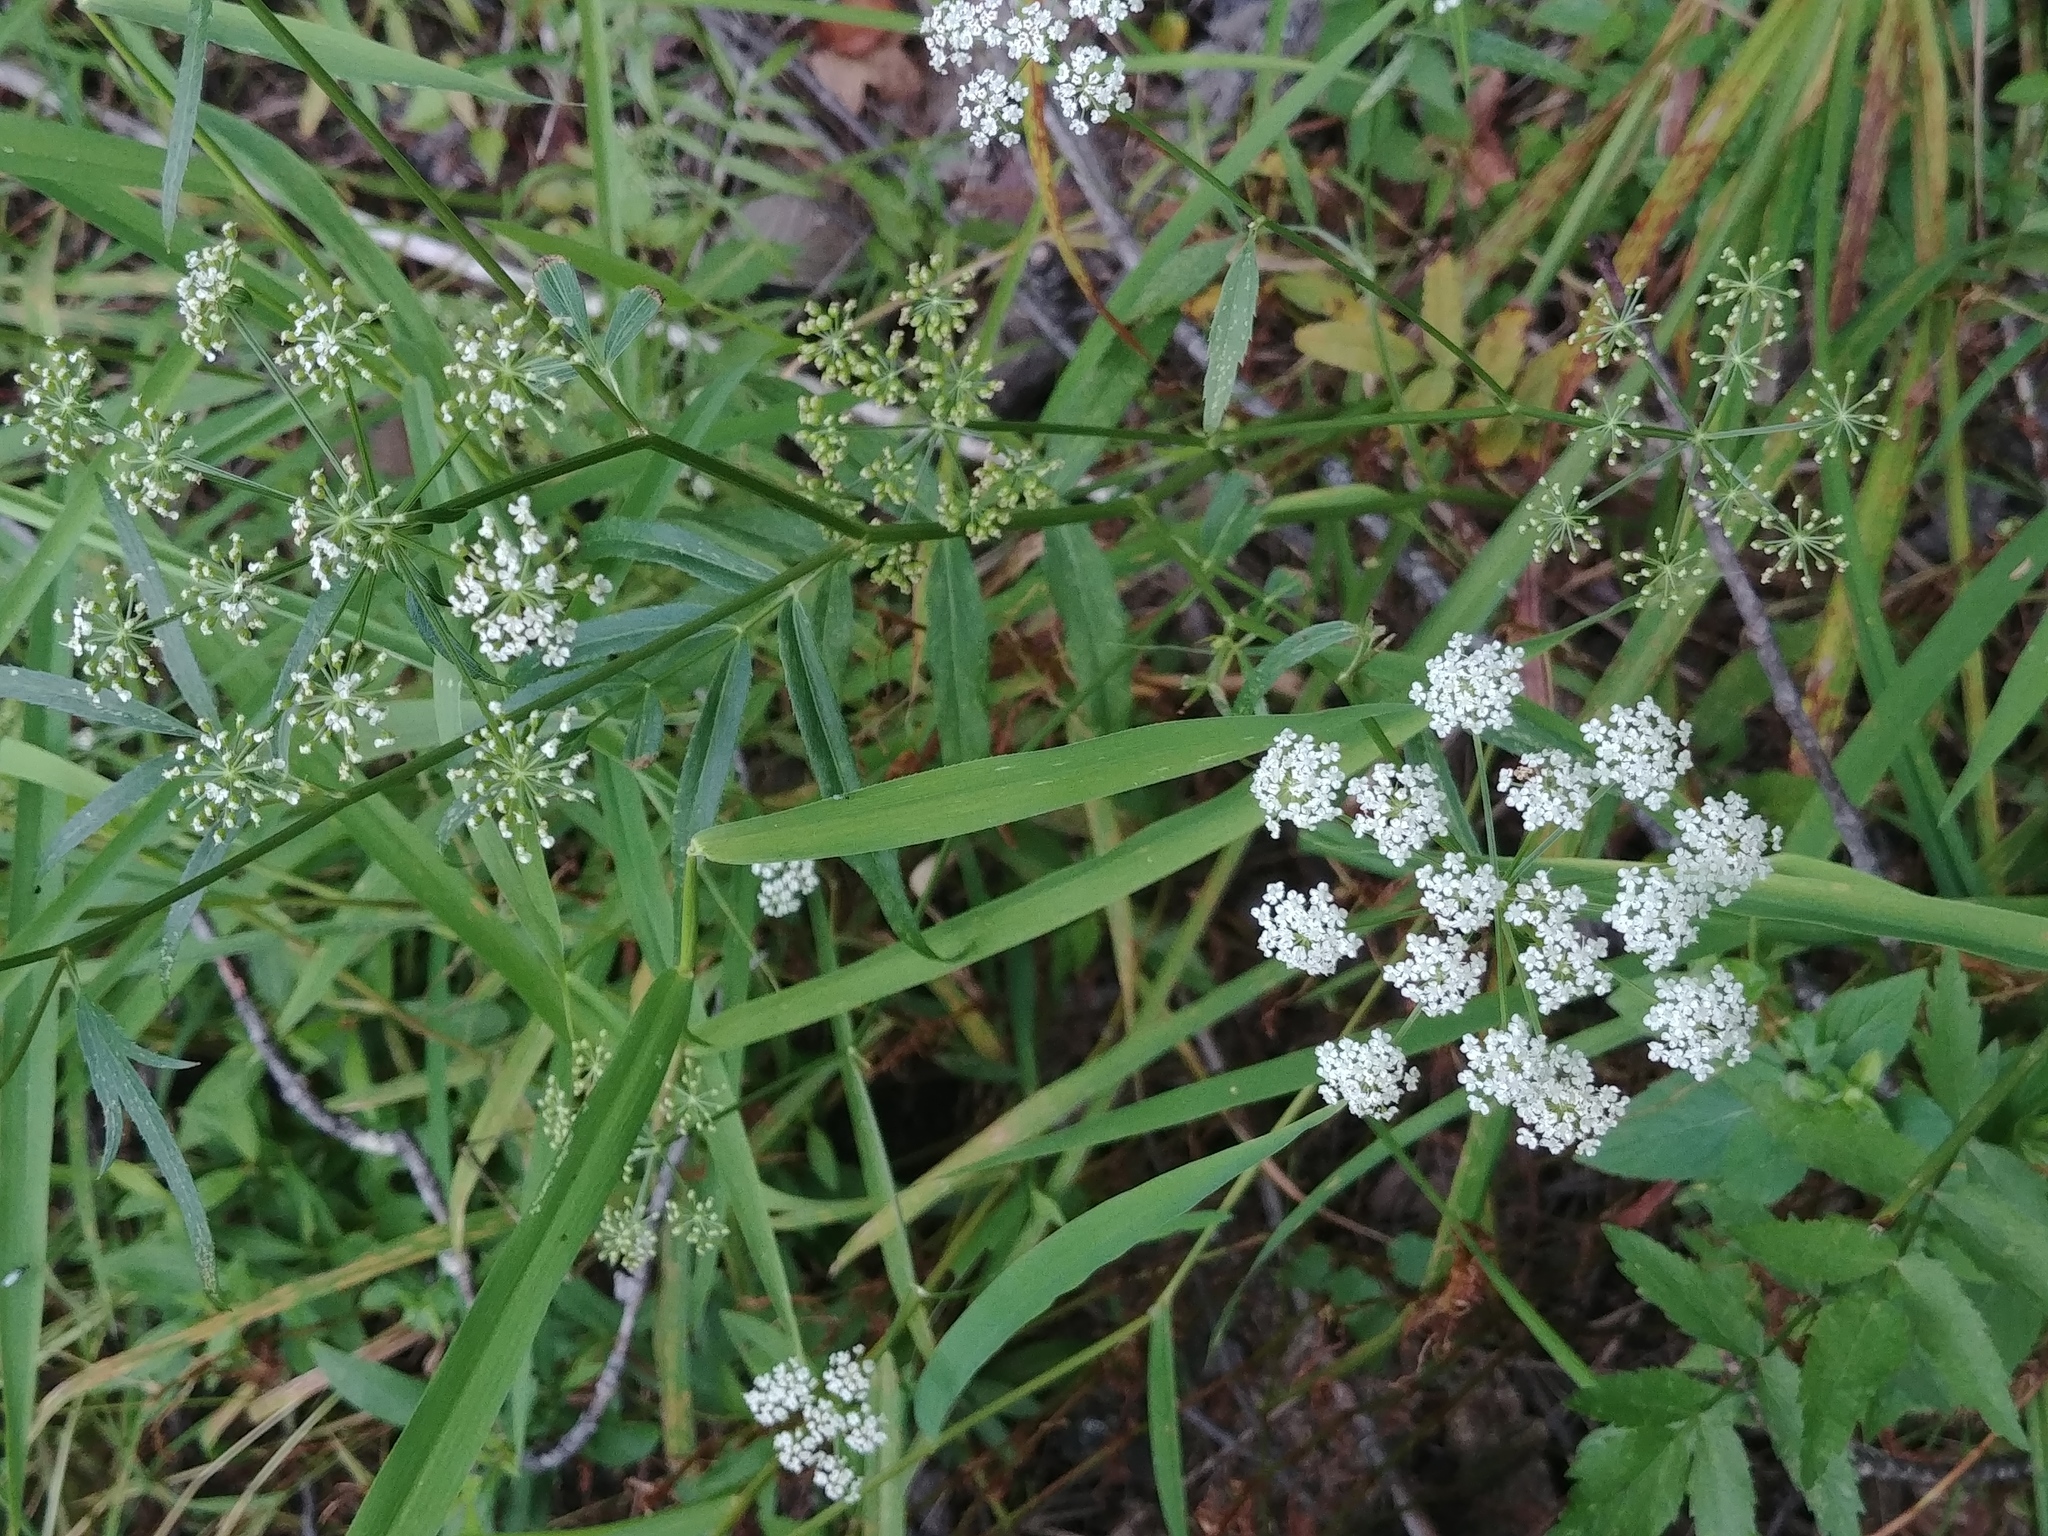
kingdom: Plantae
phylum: Tracheophyta
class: Magnoliopsida
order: Apiales
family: Apiaceae
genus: Sium
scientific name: Sium suave
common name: Hemlock water-parsnip
